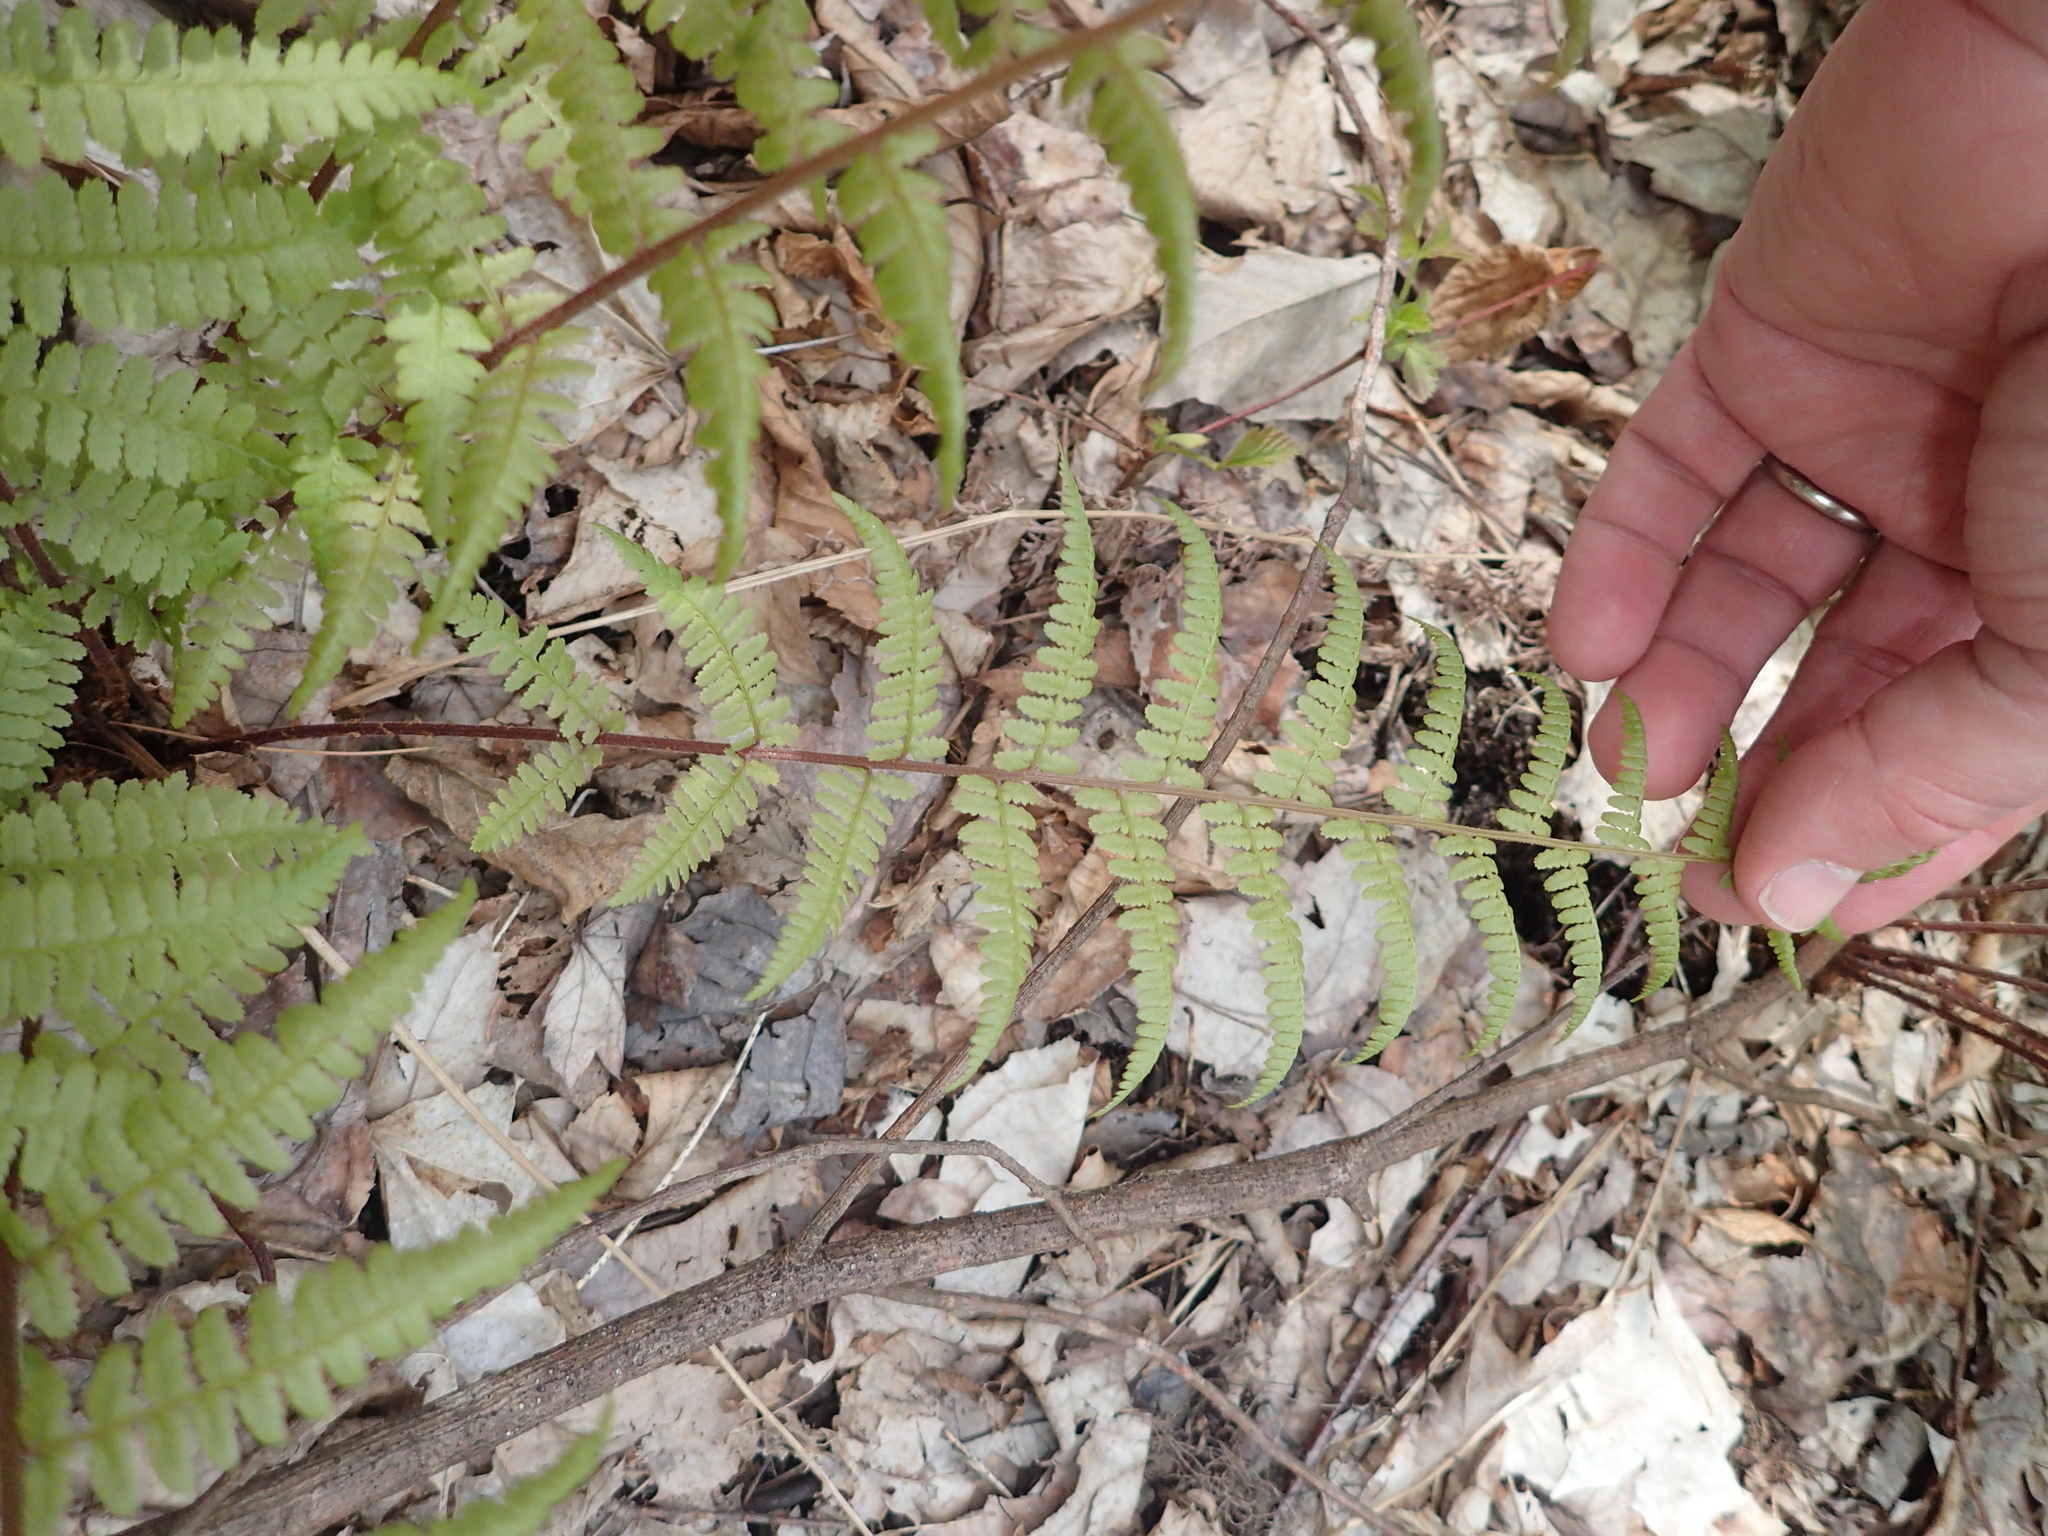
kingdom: Plantae
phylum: Tracheophyta
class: Polypodiopsida
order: Polypodiales
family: Athyriaceae
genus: Athyrium
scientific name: Athyrium angustum
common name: Northern lady fern
